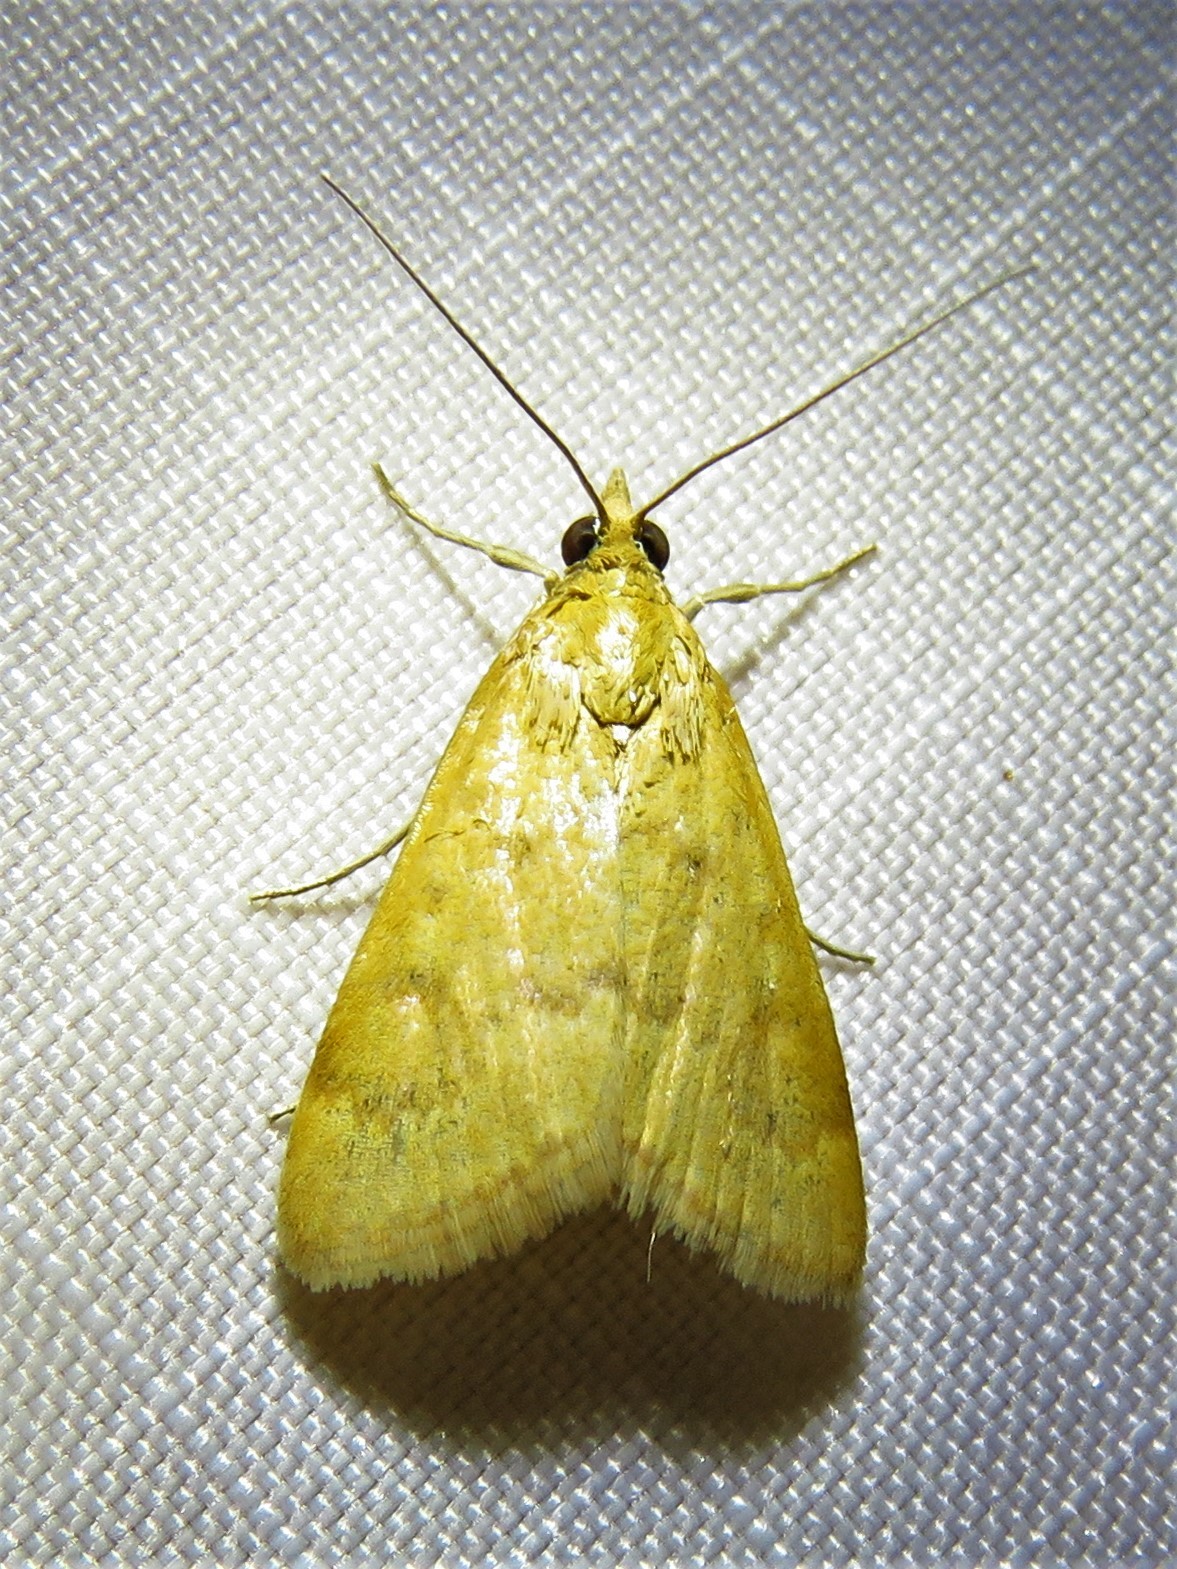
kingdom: Animalia
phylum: Arthropoda
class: Insecta
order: Lepidoptera
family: Crambidae
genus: Achyra
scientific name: Achyra rantalis
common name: Garden webworm
